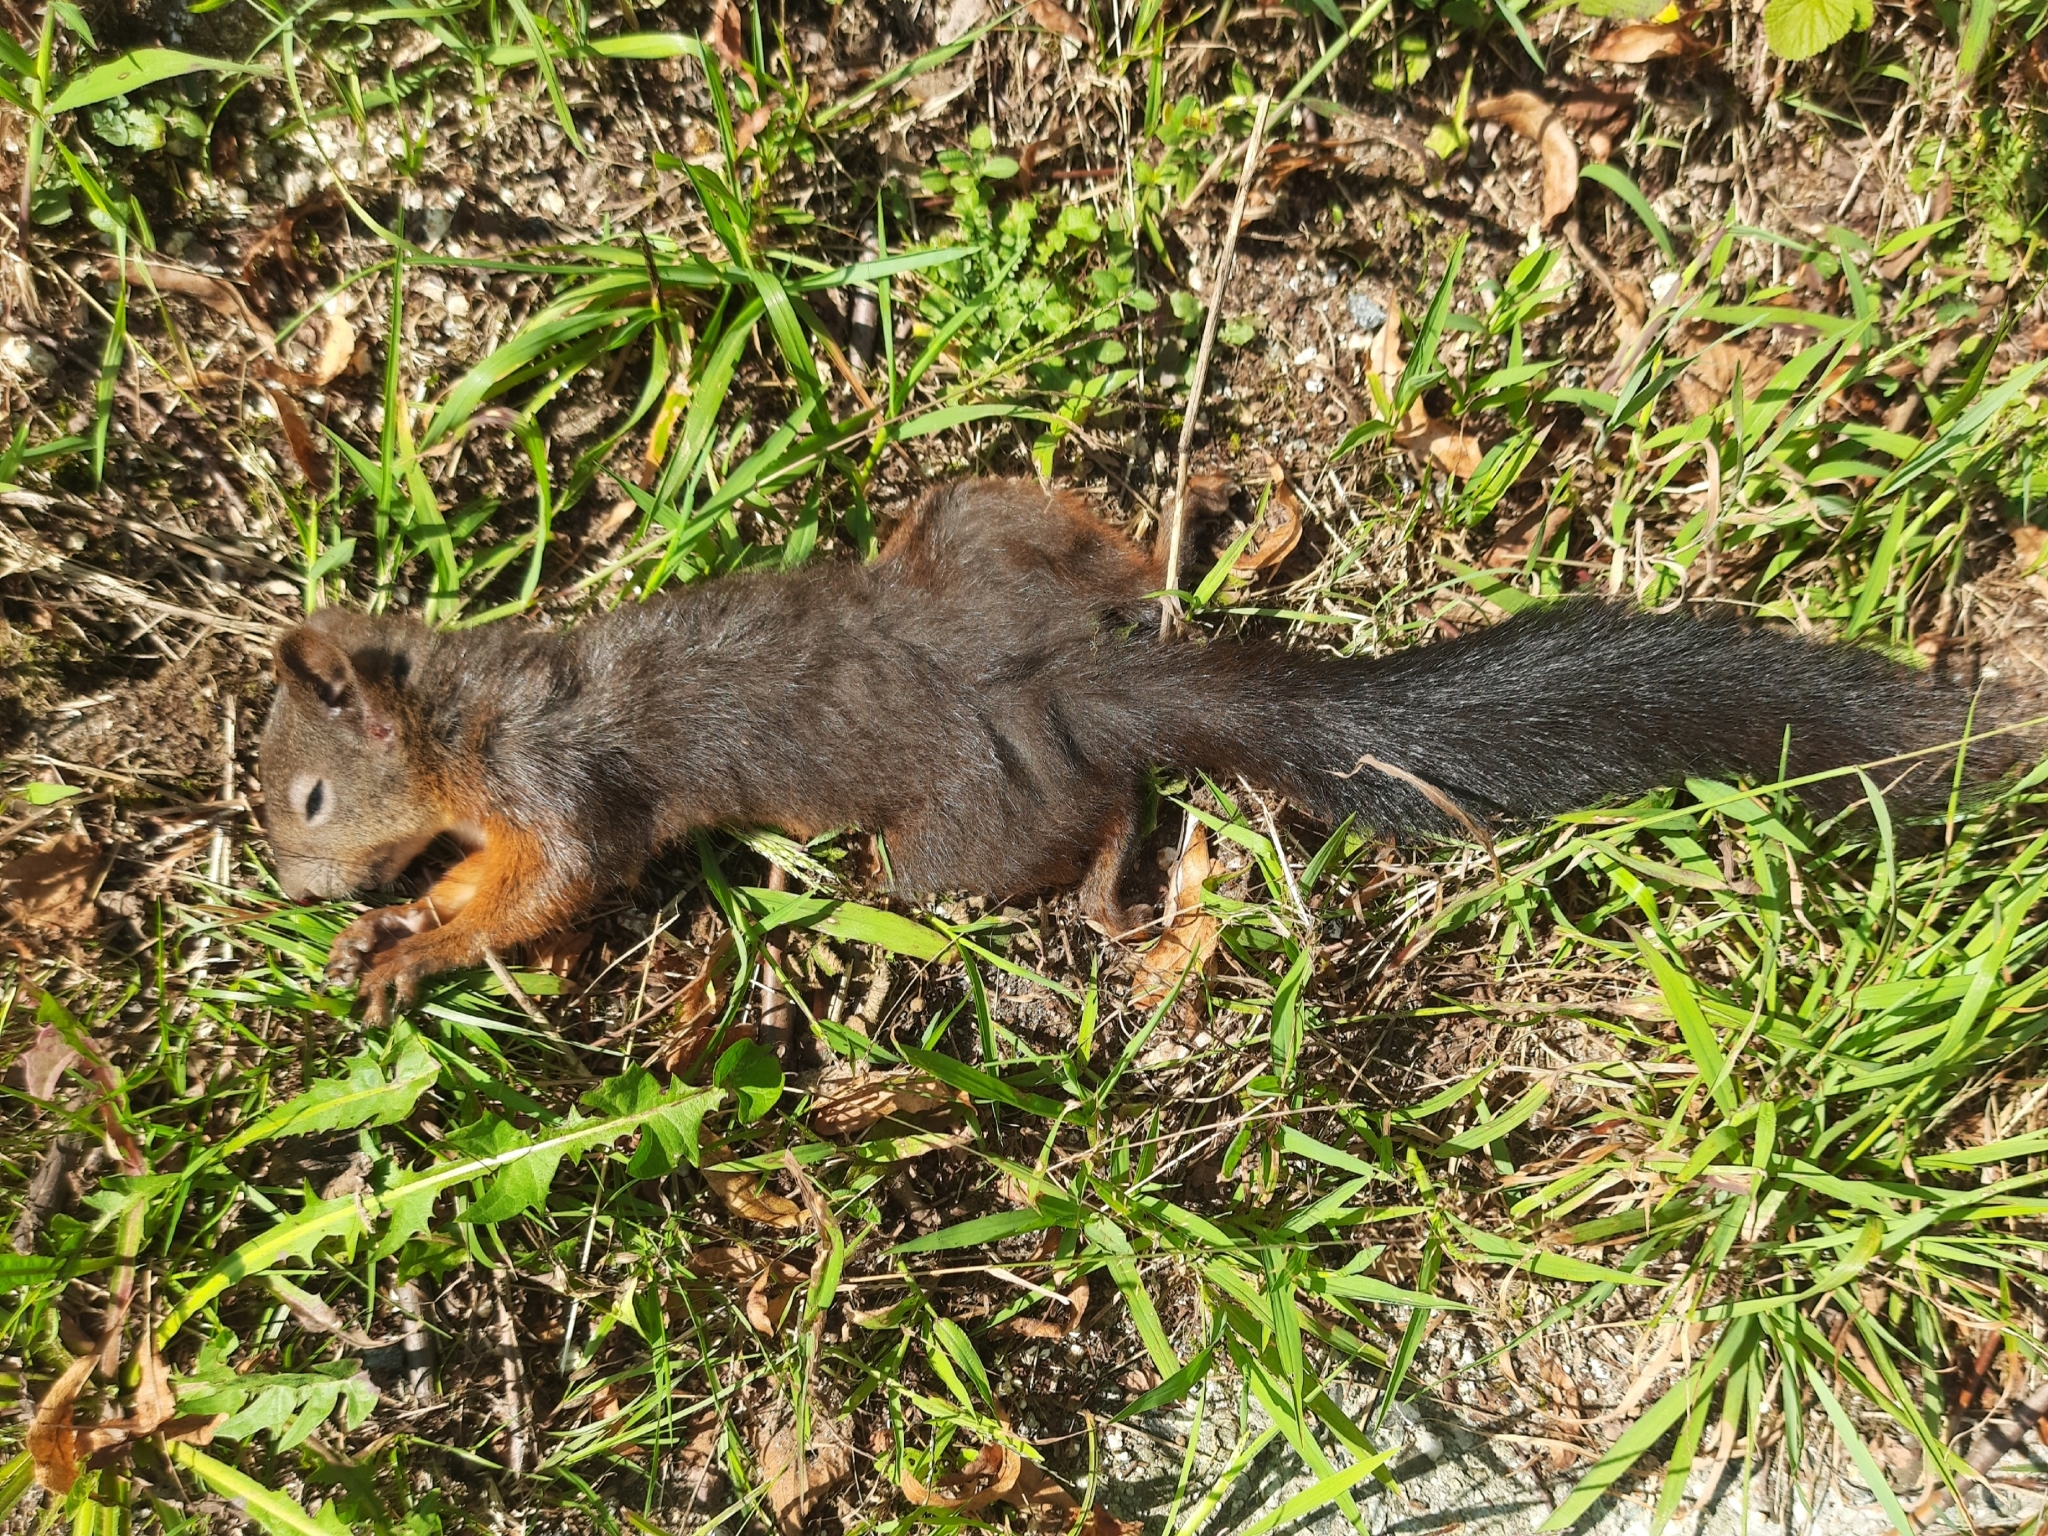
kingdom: Animalia
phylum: Chordata
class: Mammalia
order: Rodentia
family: Sciuridae
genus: Sciurus
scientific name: Sciurus vulgaris
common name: Eurasian red squirrel
